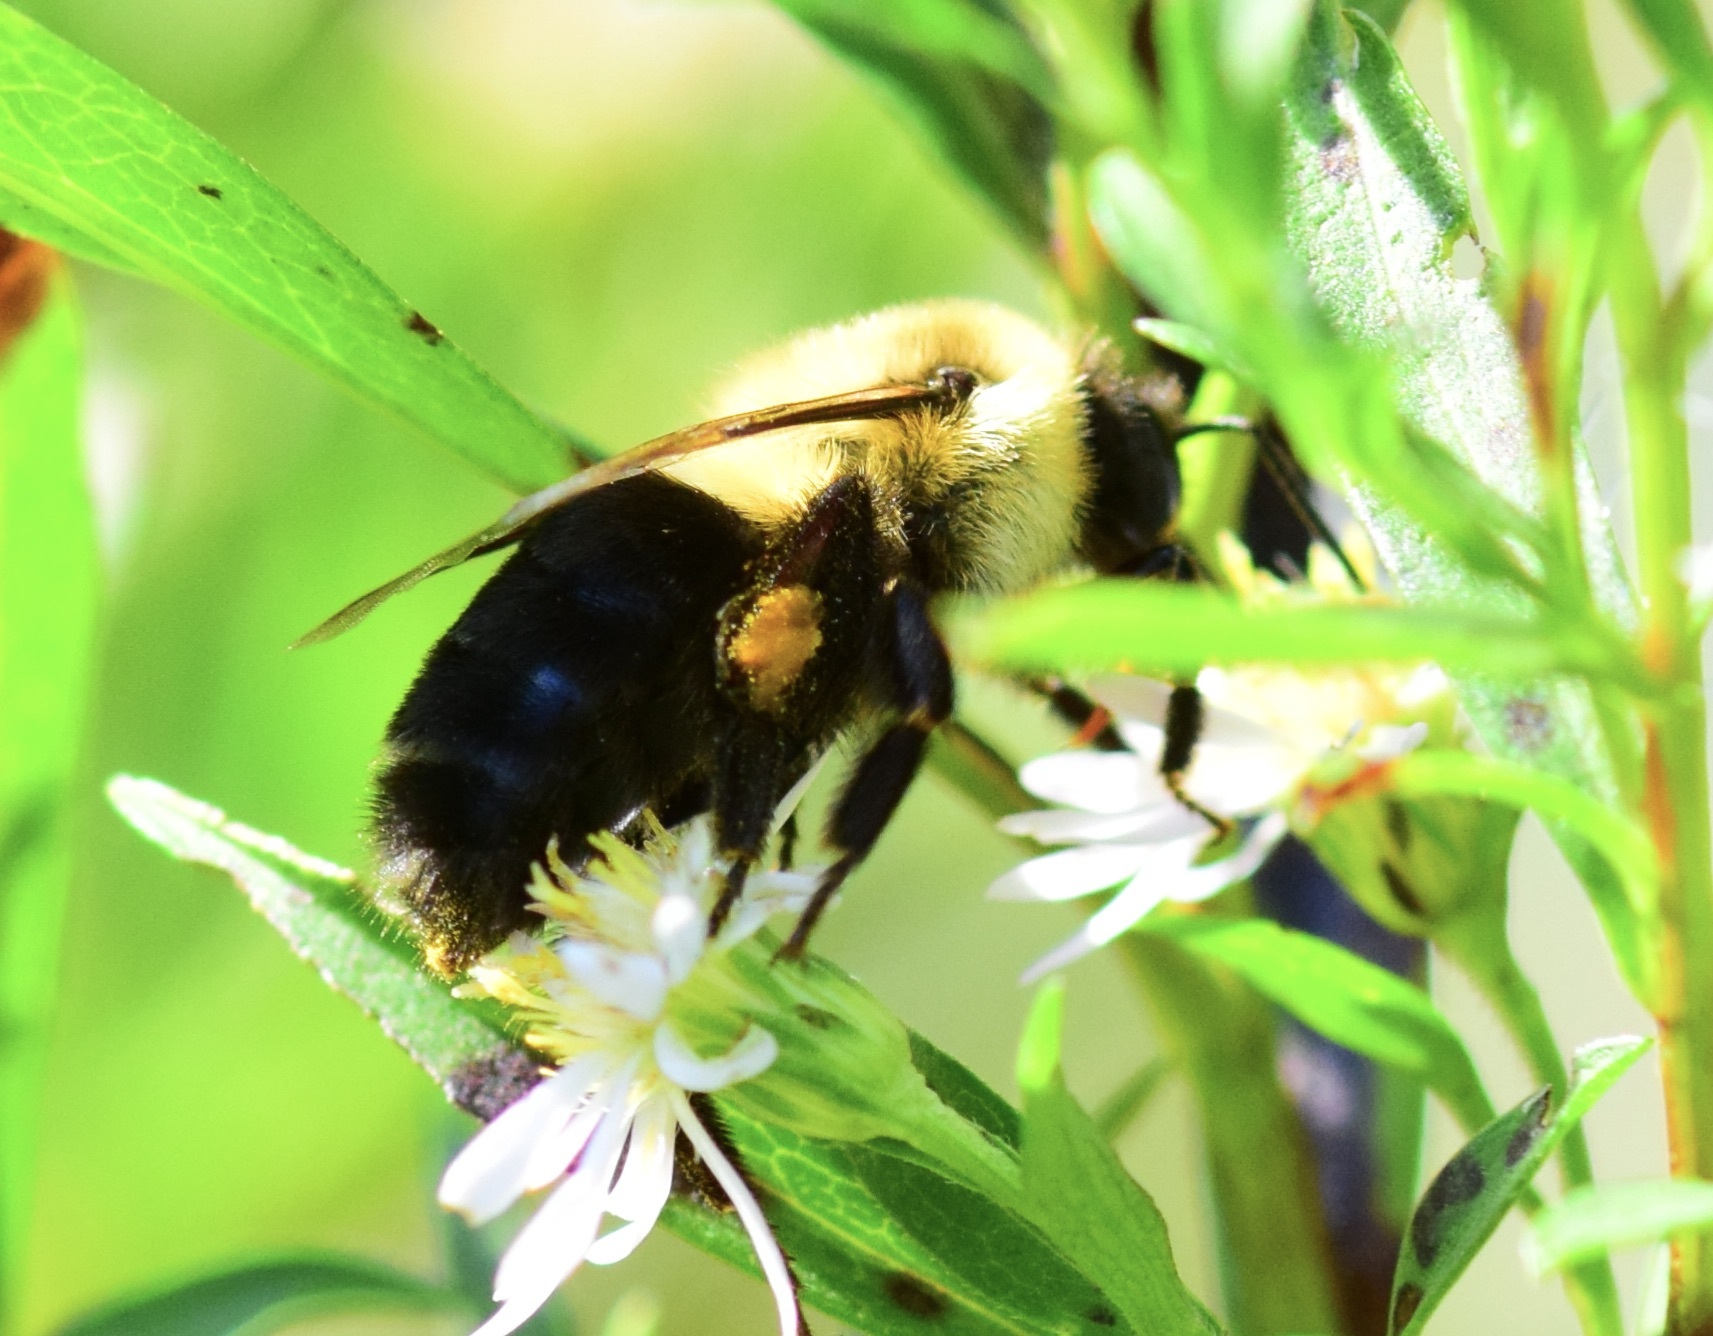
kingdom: Animalia
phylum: Arthropoda
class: Insecta
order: Hymenoptera
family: Apidae
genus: Bombus
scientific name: Bombus impatiens
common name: Common eastern bumble bee
